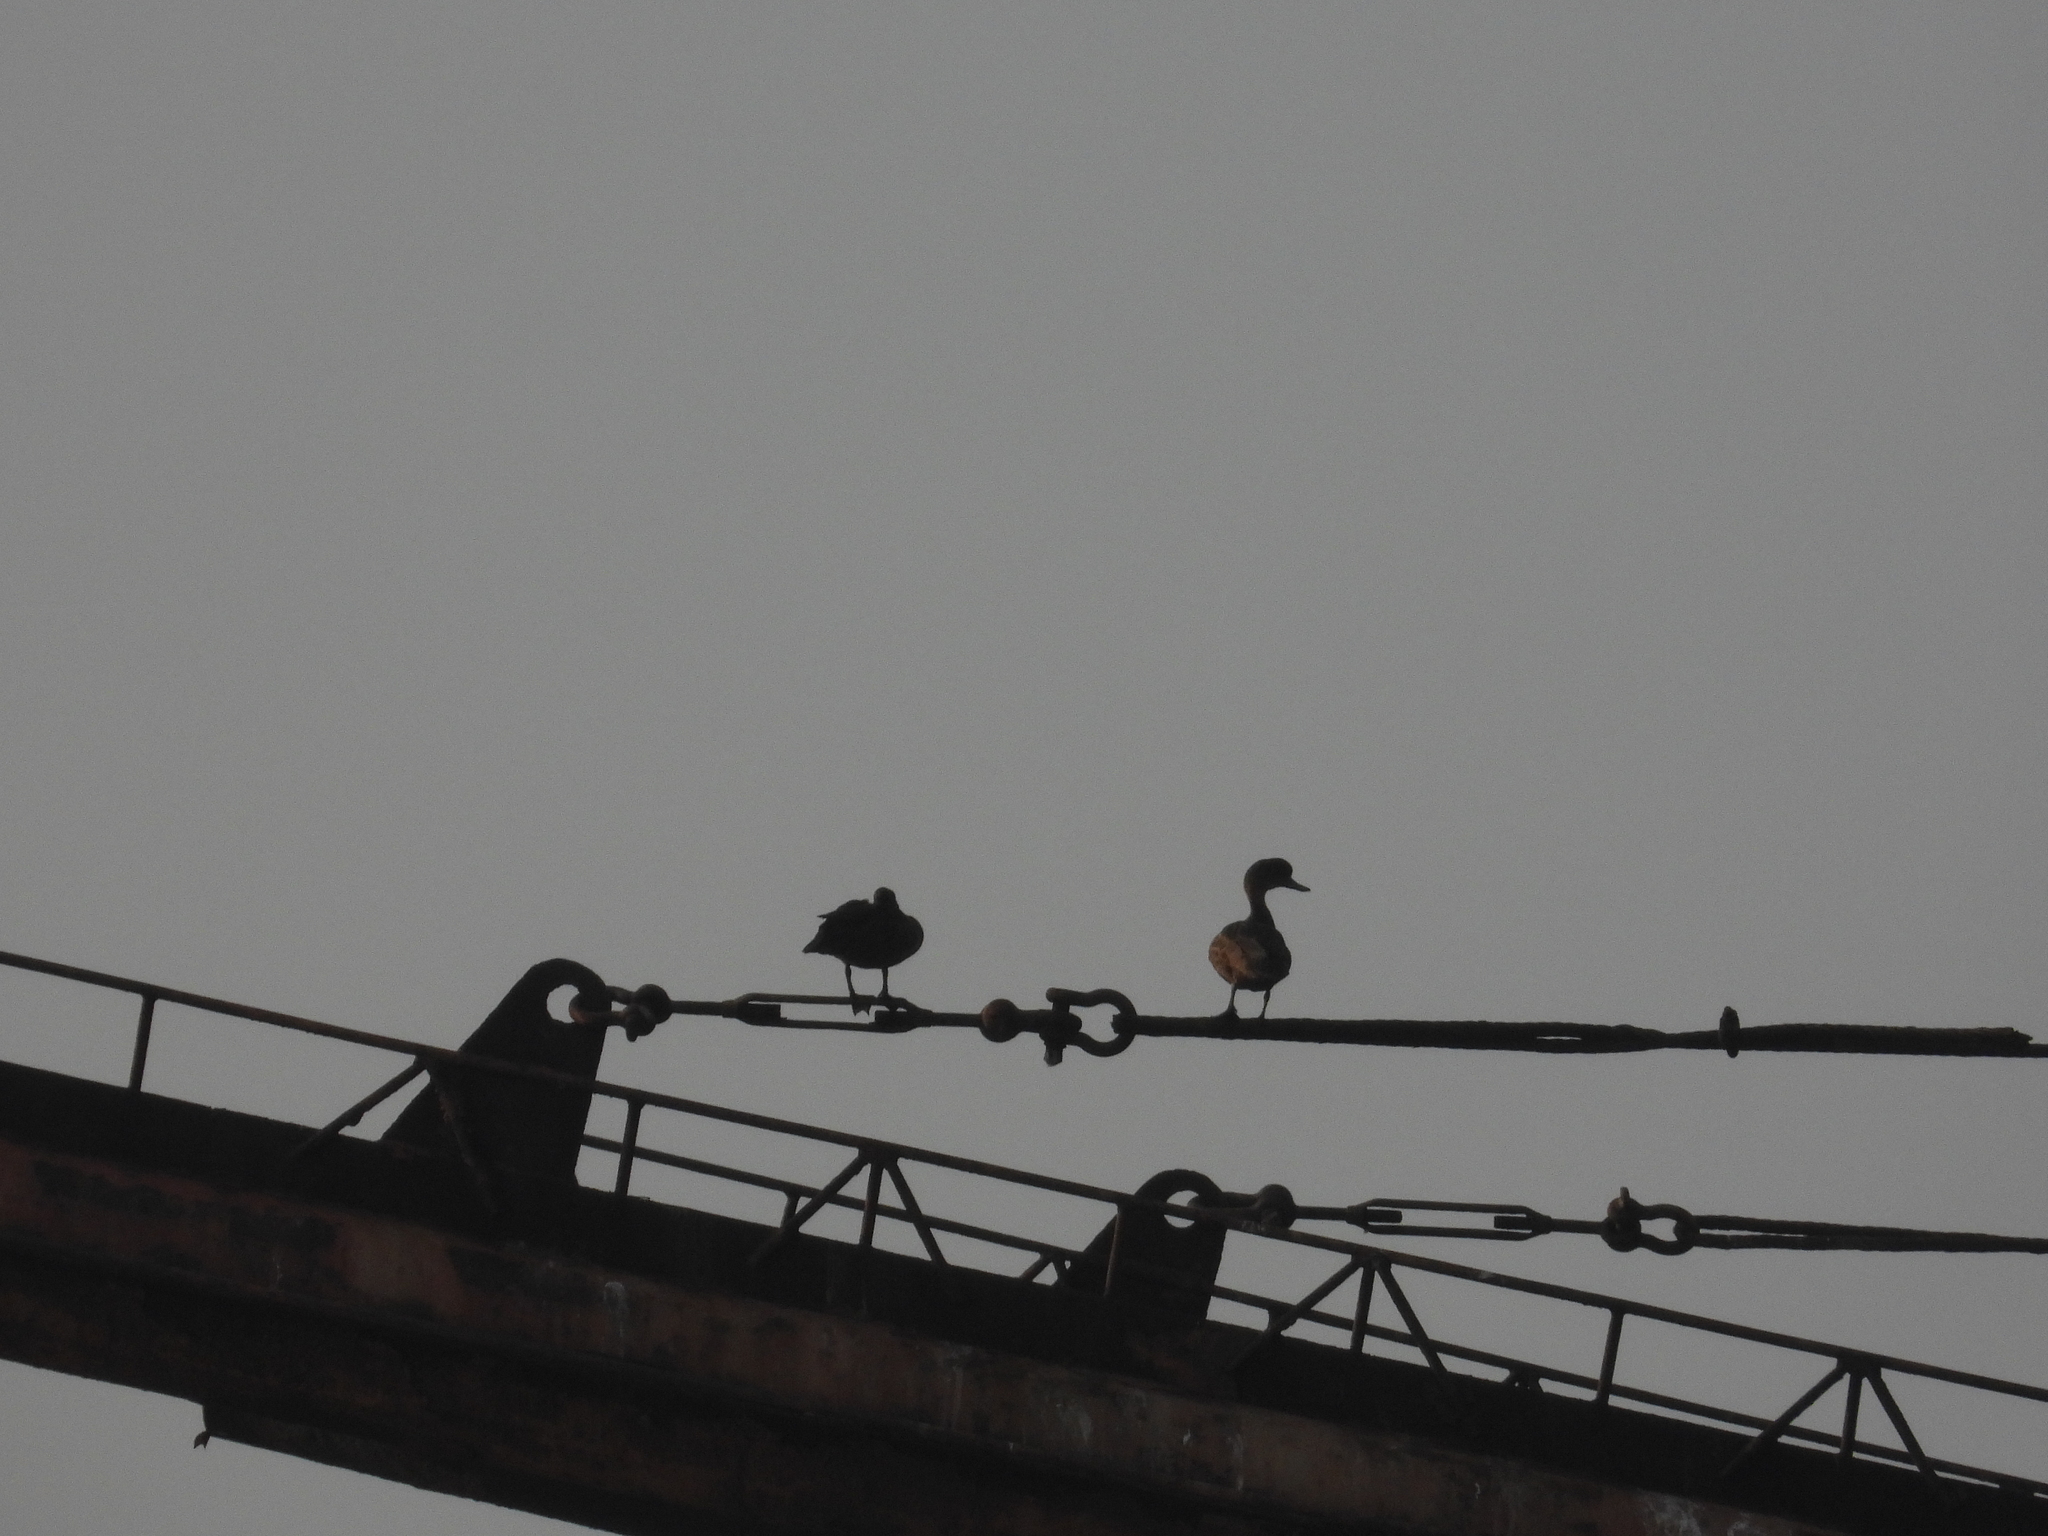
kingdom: Animalia
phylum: Chordata
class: Aves
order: Anseriformes
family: Anatidae
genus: Anas
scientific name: Anas gibberifrons
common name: Sunda teal
